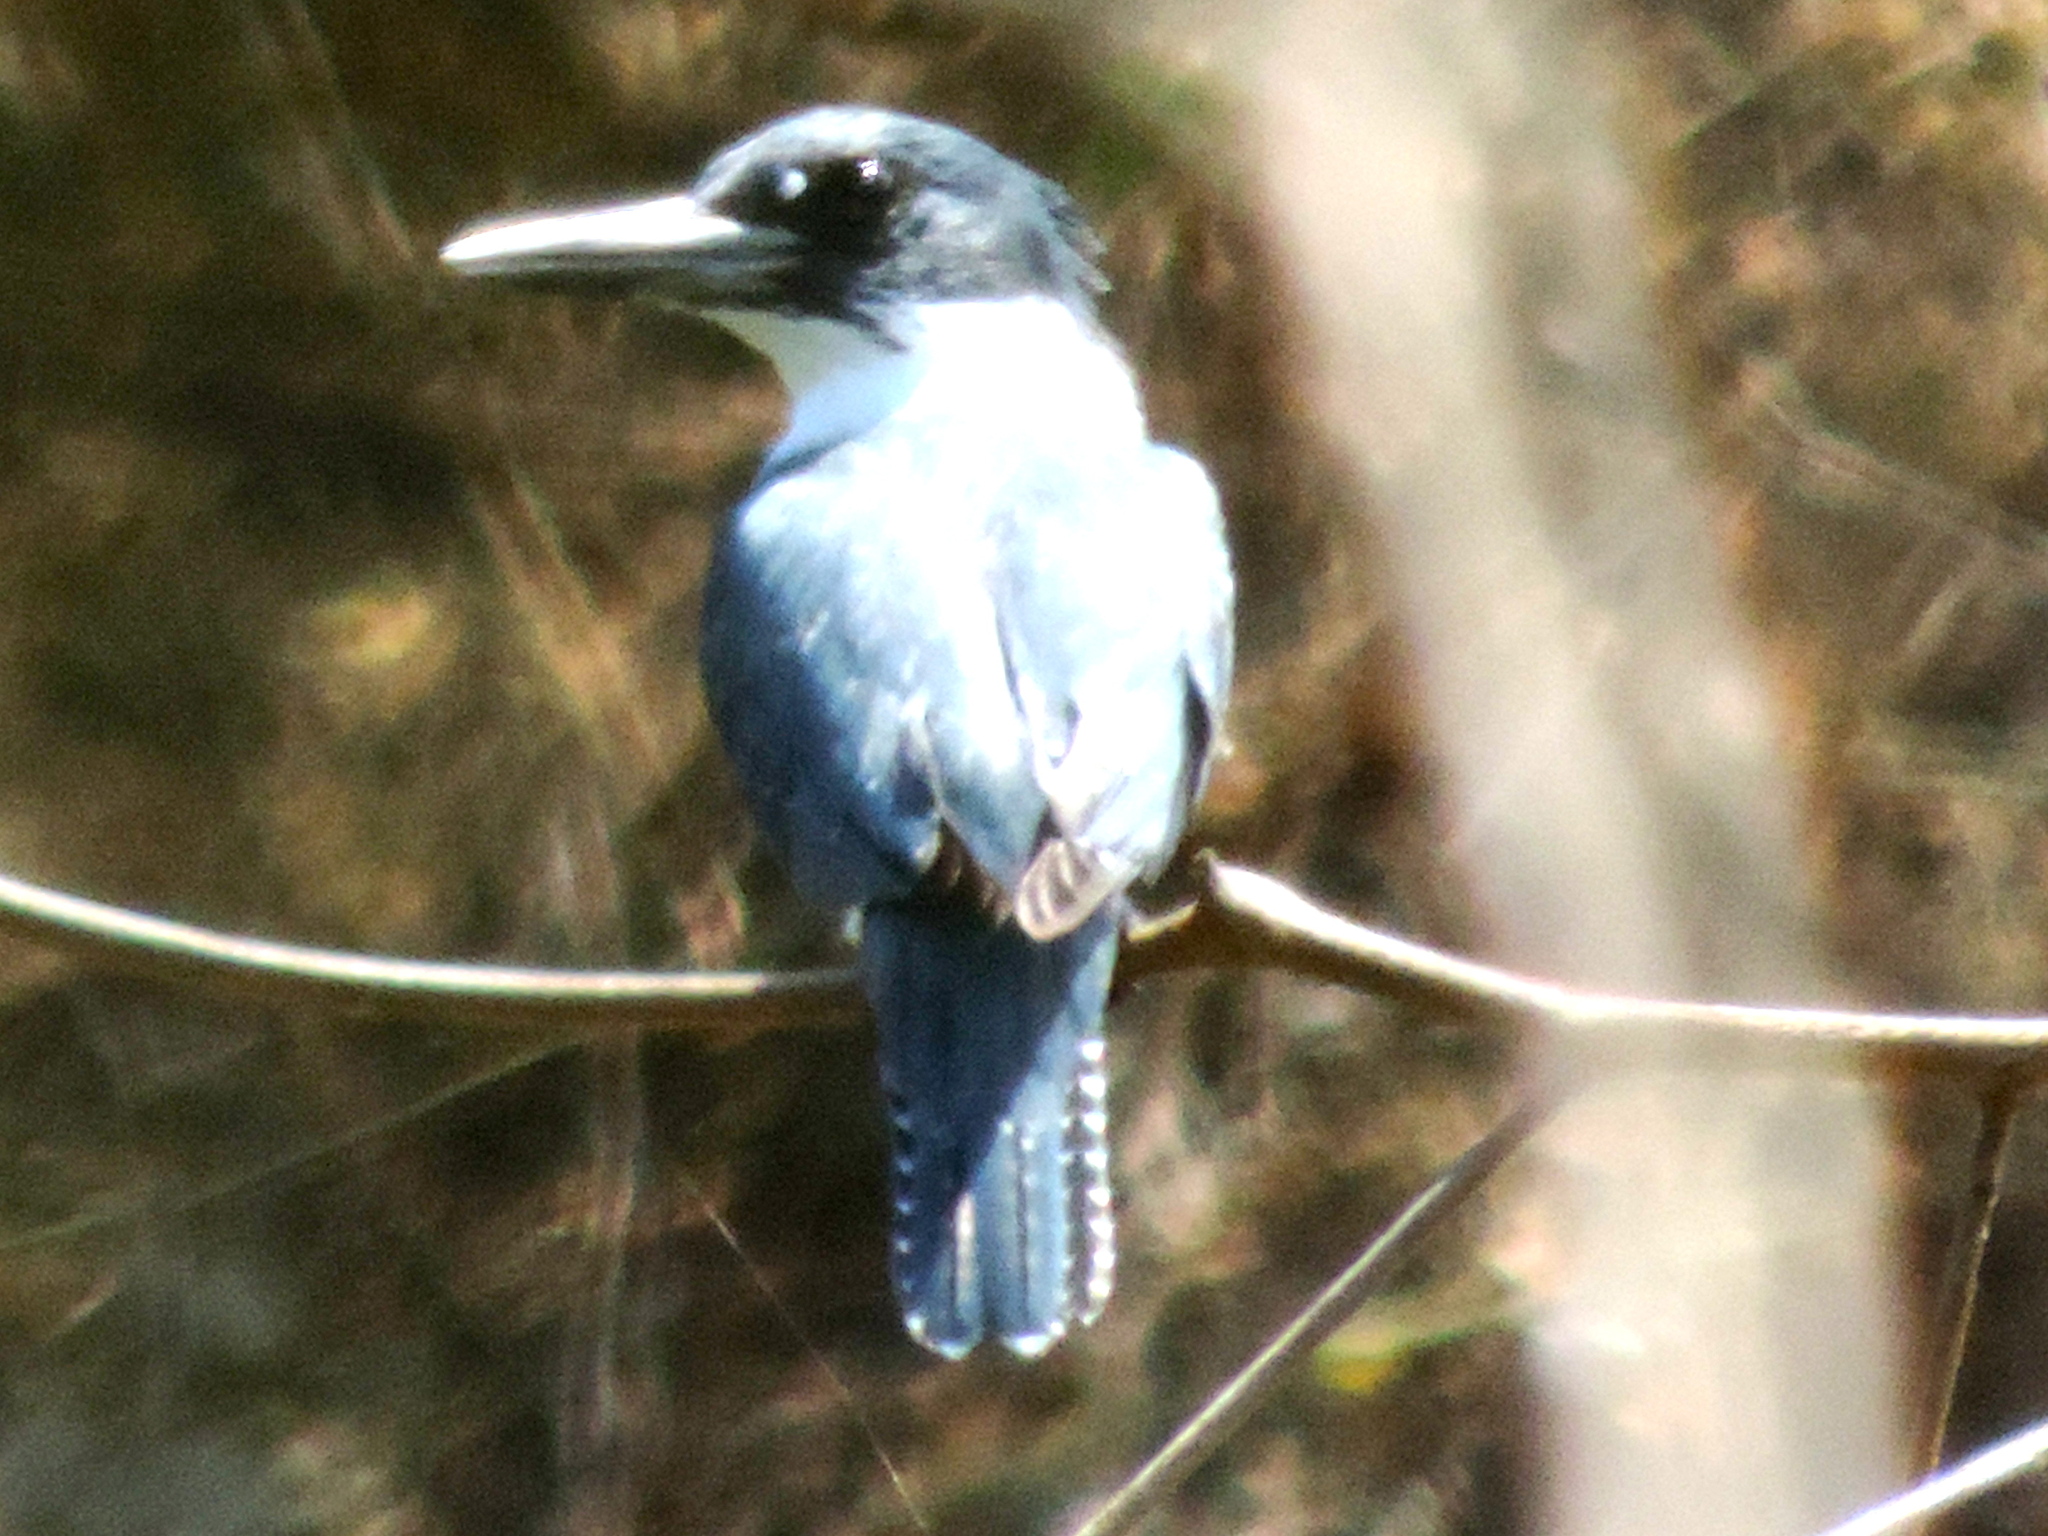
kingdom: Animalia
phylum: Chordata
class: Aves
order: Coraciiformes
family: Alcedinidae
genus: Megaceryle
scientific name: Megaceryle alcyon
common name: Belted kingfisher
